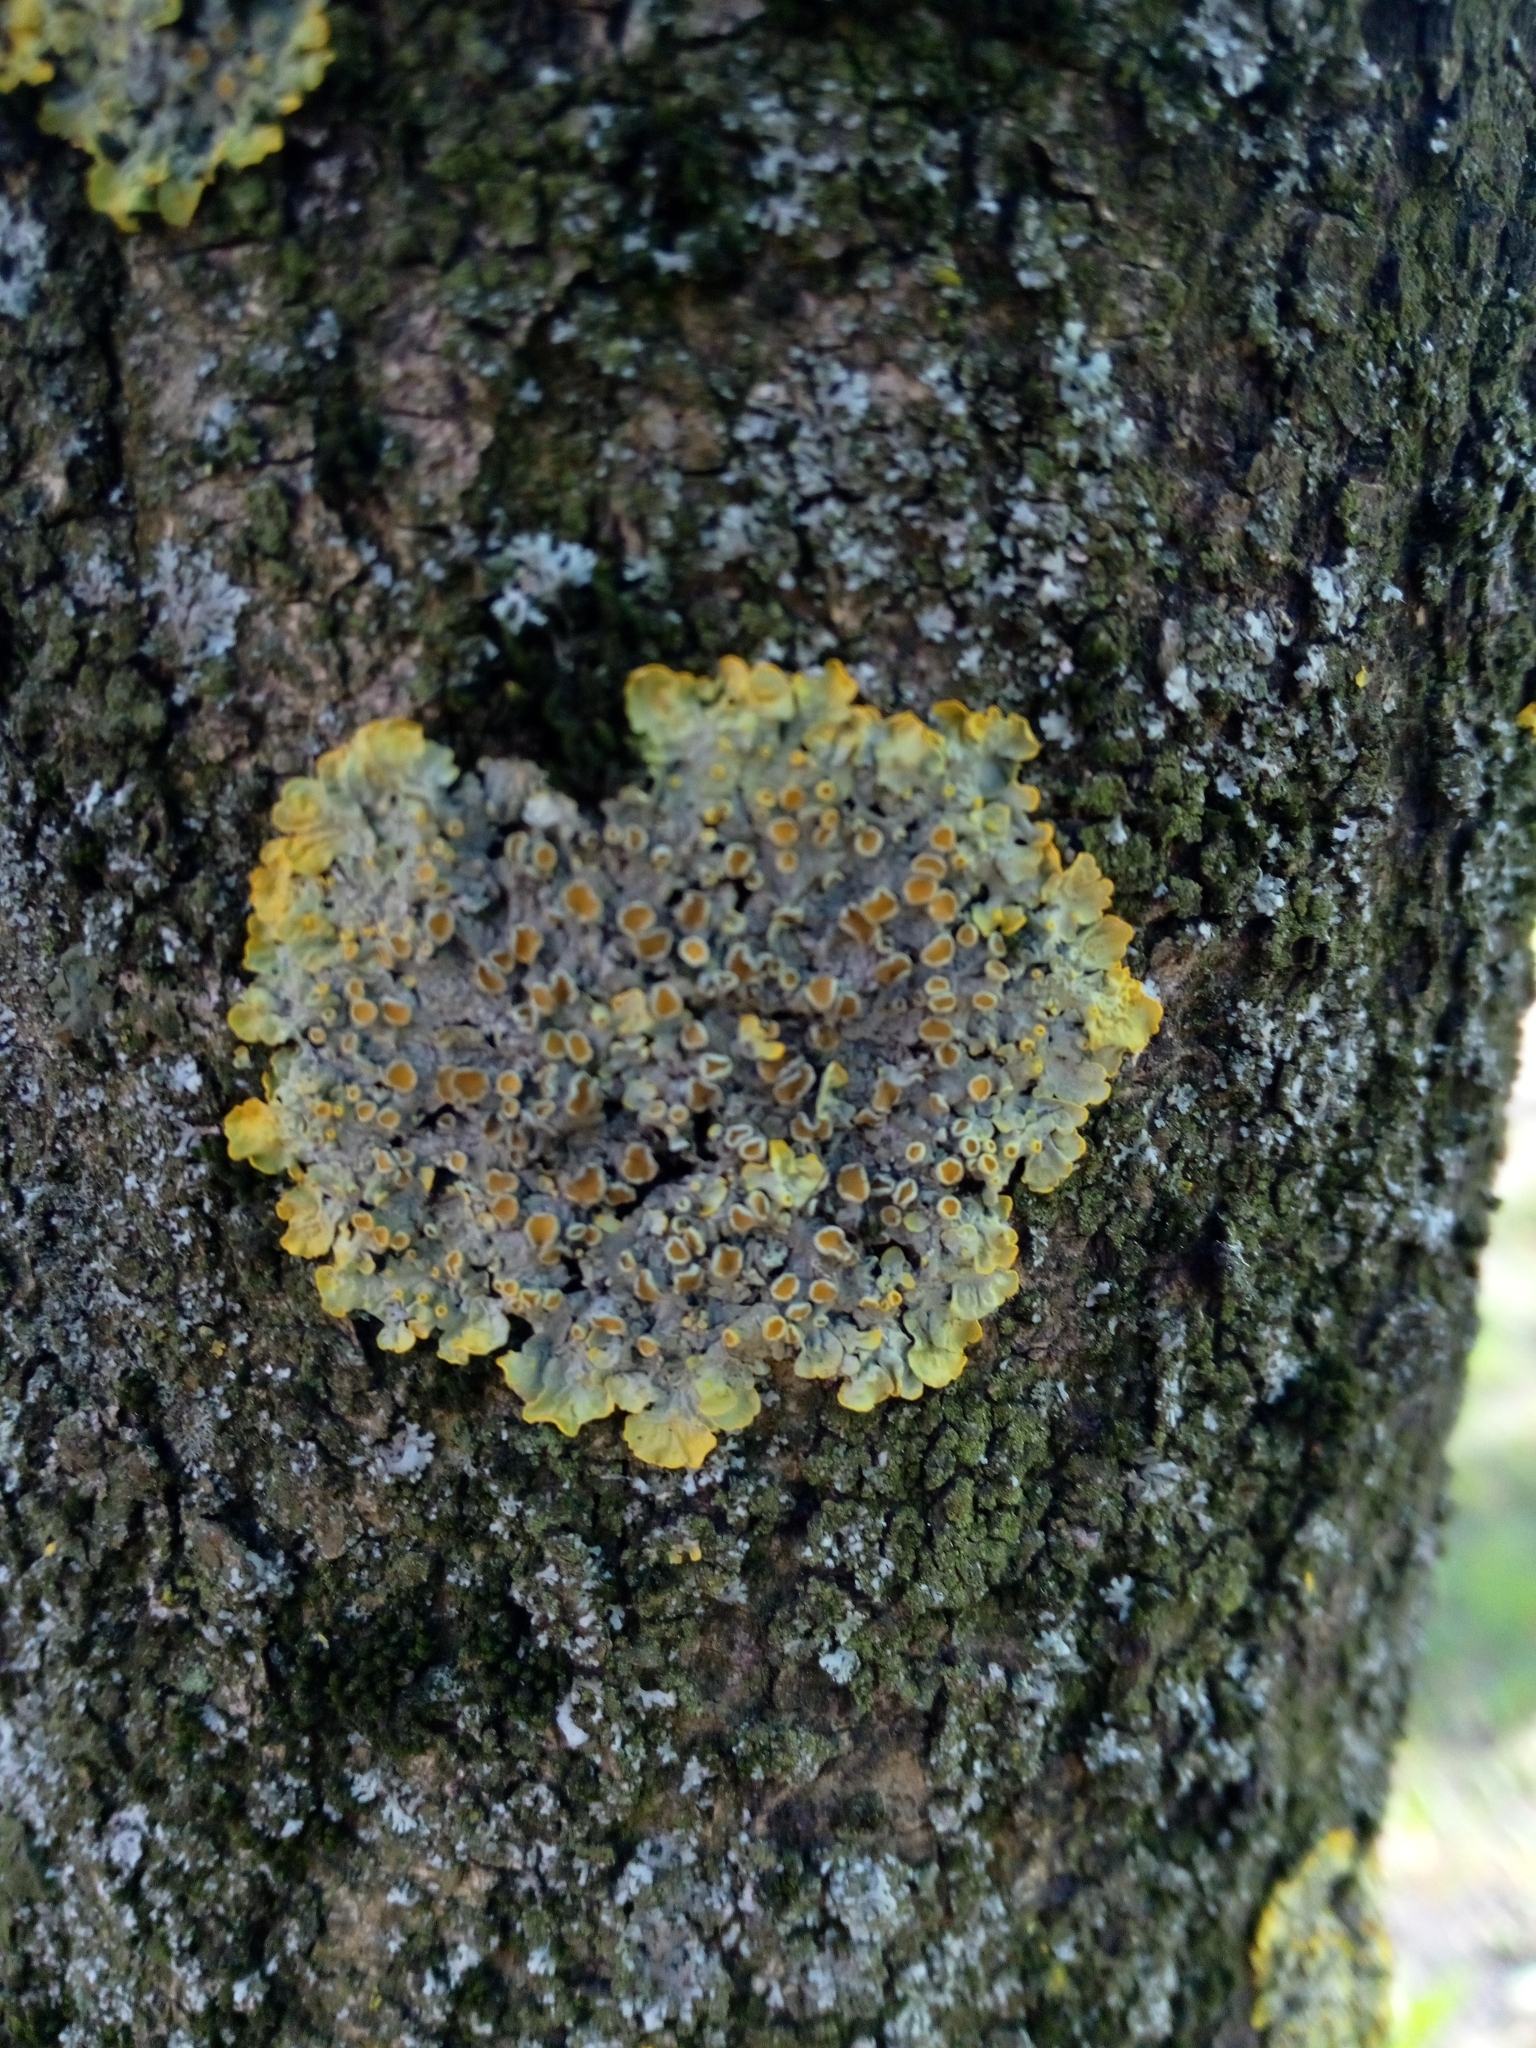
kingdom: Fungi
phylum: Ascomycota
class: Lecanoromycetes
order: Teloschistales
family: Teloschistaceae
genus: Xanthoria
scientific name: Xanthoria parietina
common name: Common orange lichen
